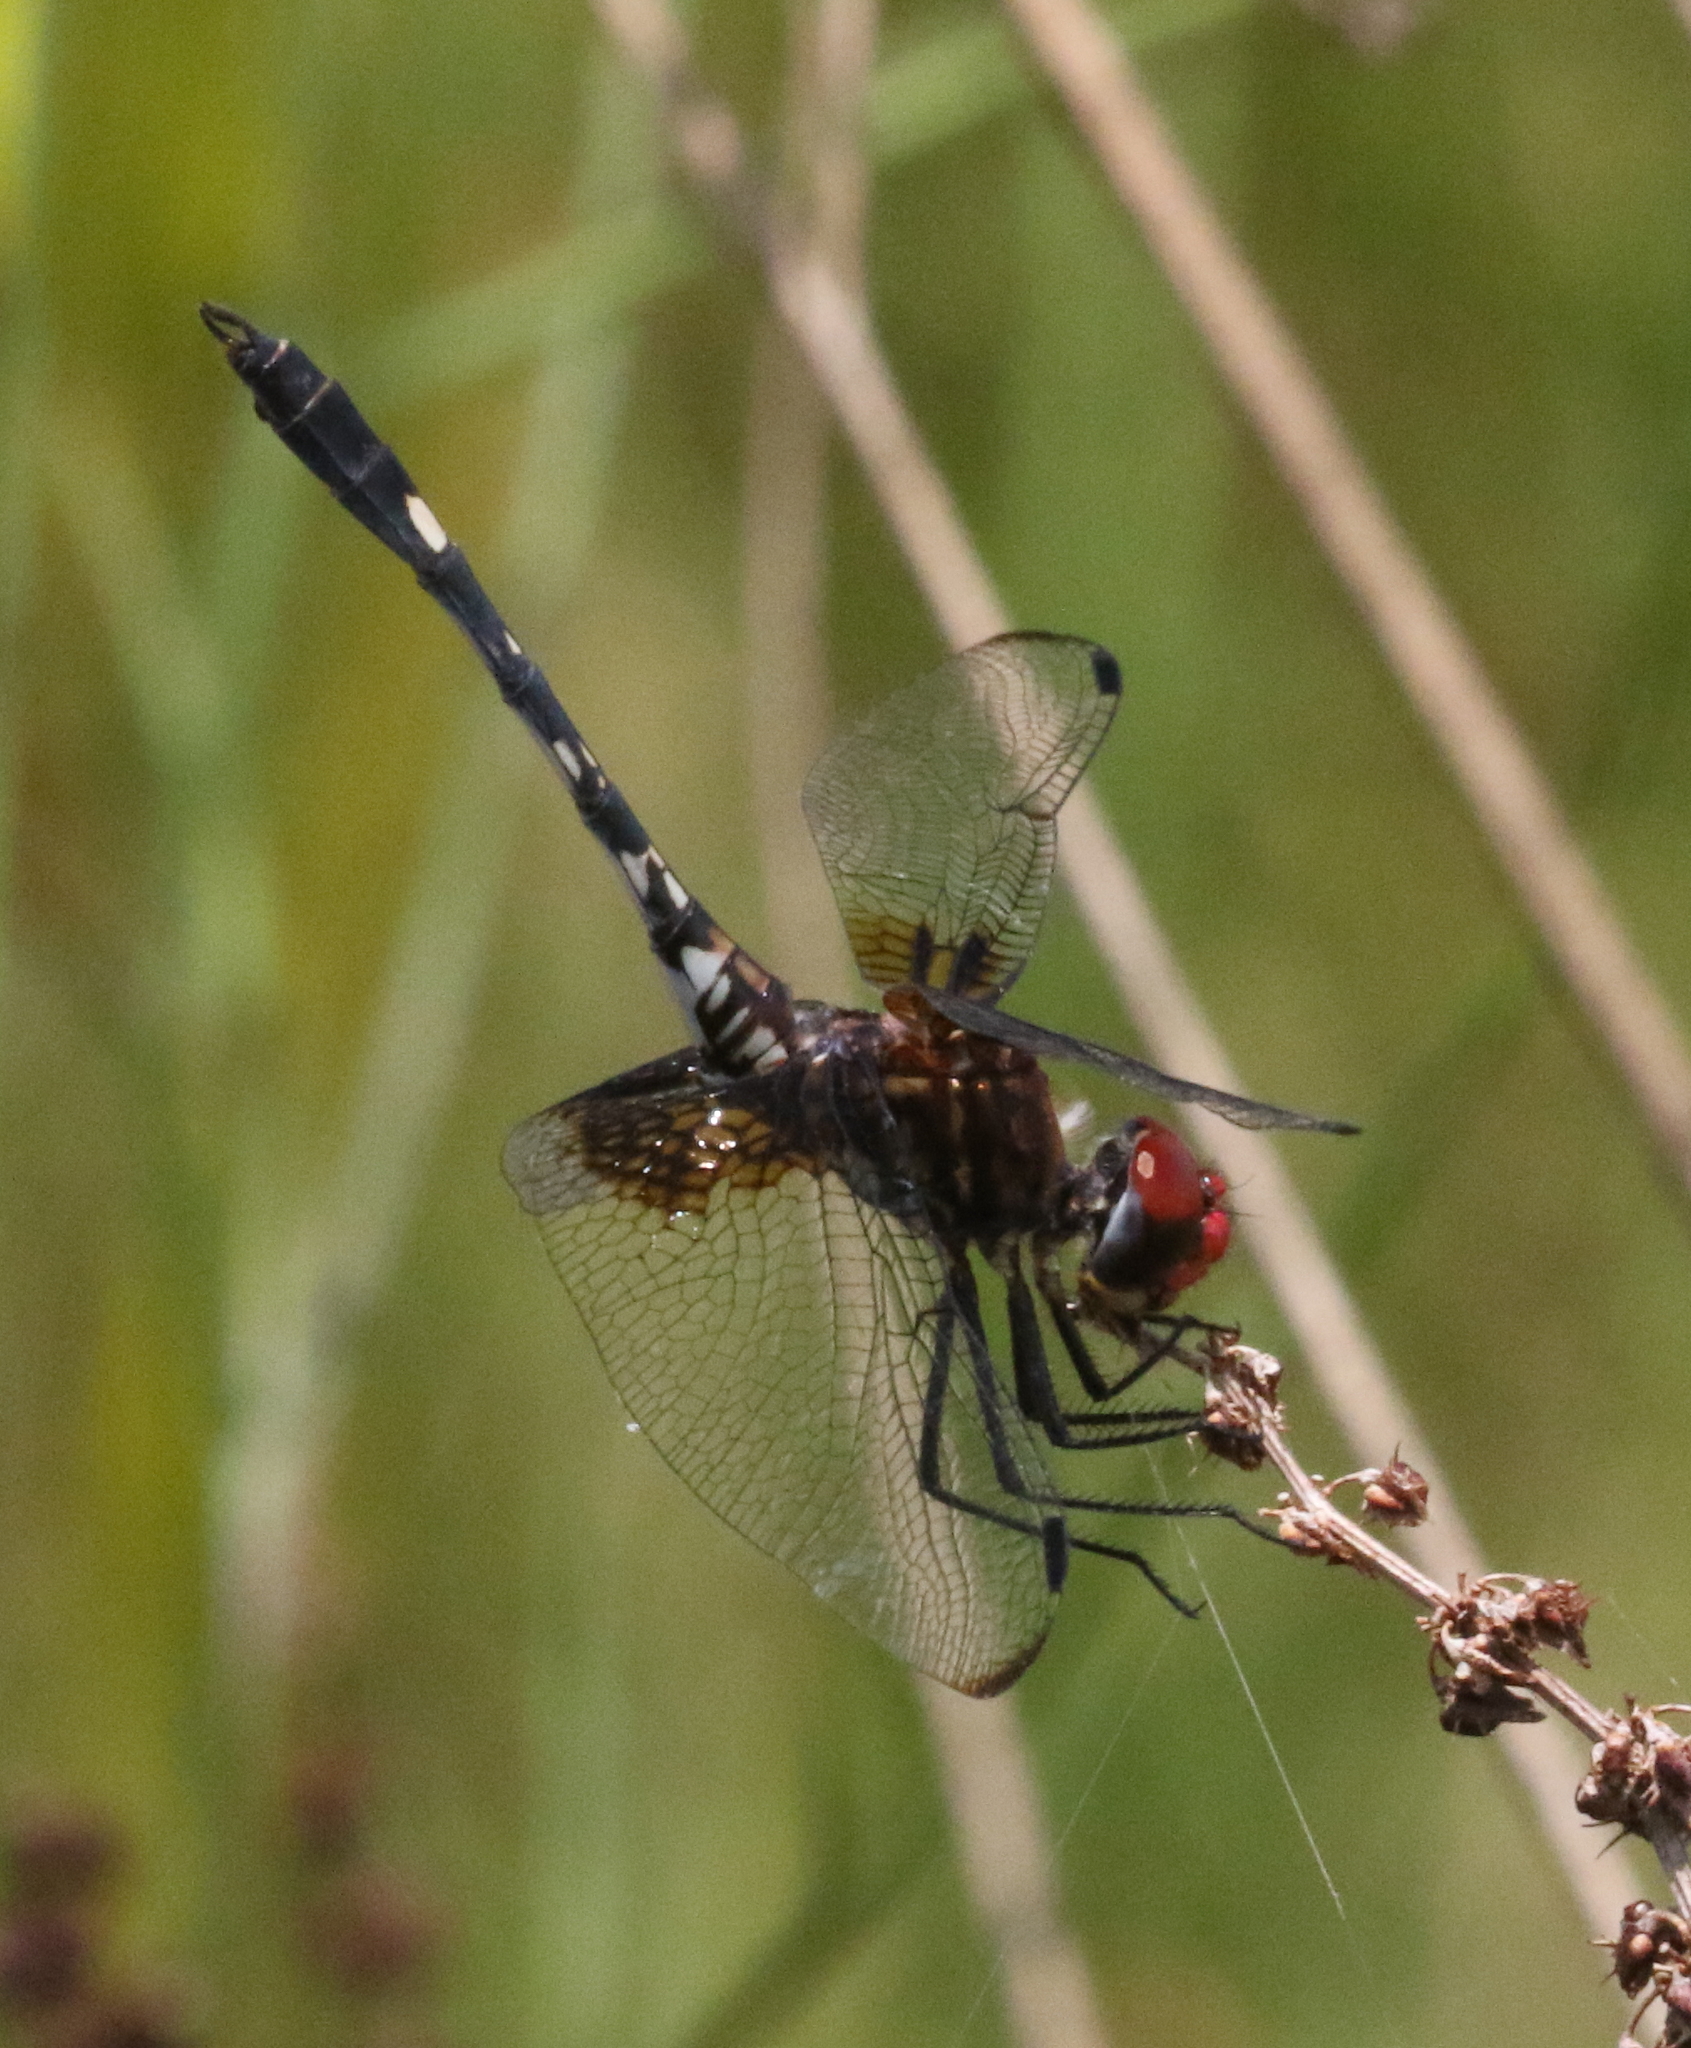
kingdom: Animalia
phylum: Arthropoda
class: Insecta
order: Odonata
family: Libellulidae
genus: Dythemis
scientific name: Dythemis fugax
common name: Checkered setwing
